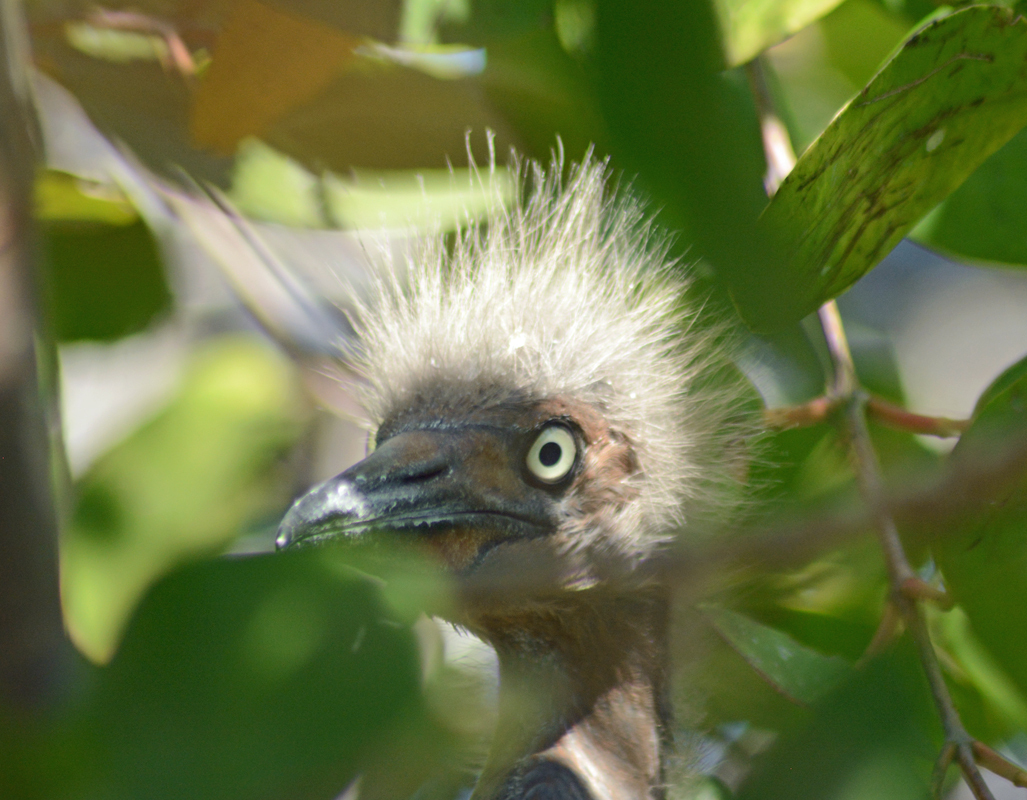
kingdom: Animalia
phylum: Chordata
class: Aves
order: Pelecaniformes
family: Ardeidae
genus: Egretta
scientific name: Egretta rufescens
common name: Reddish egret
